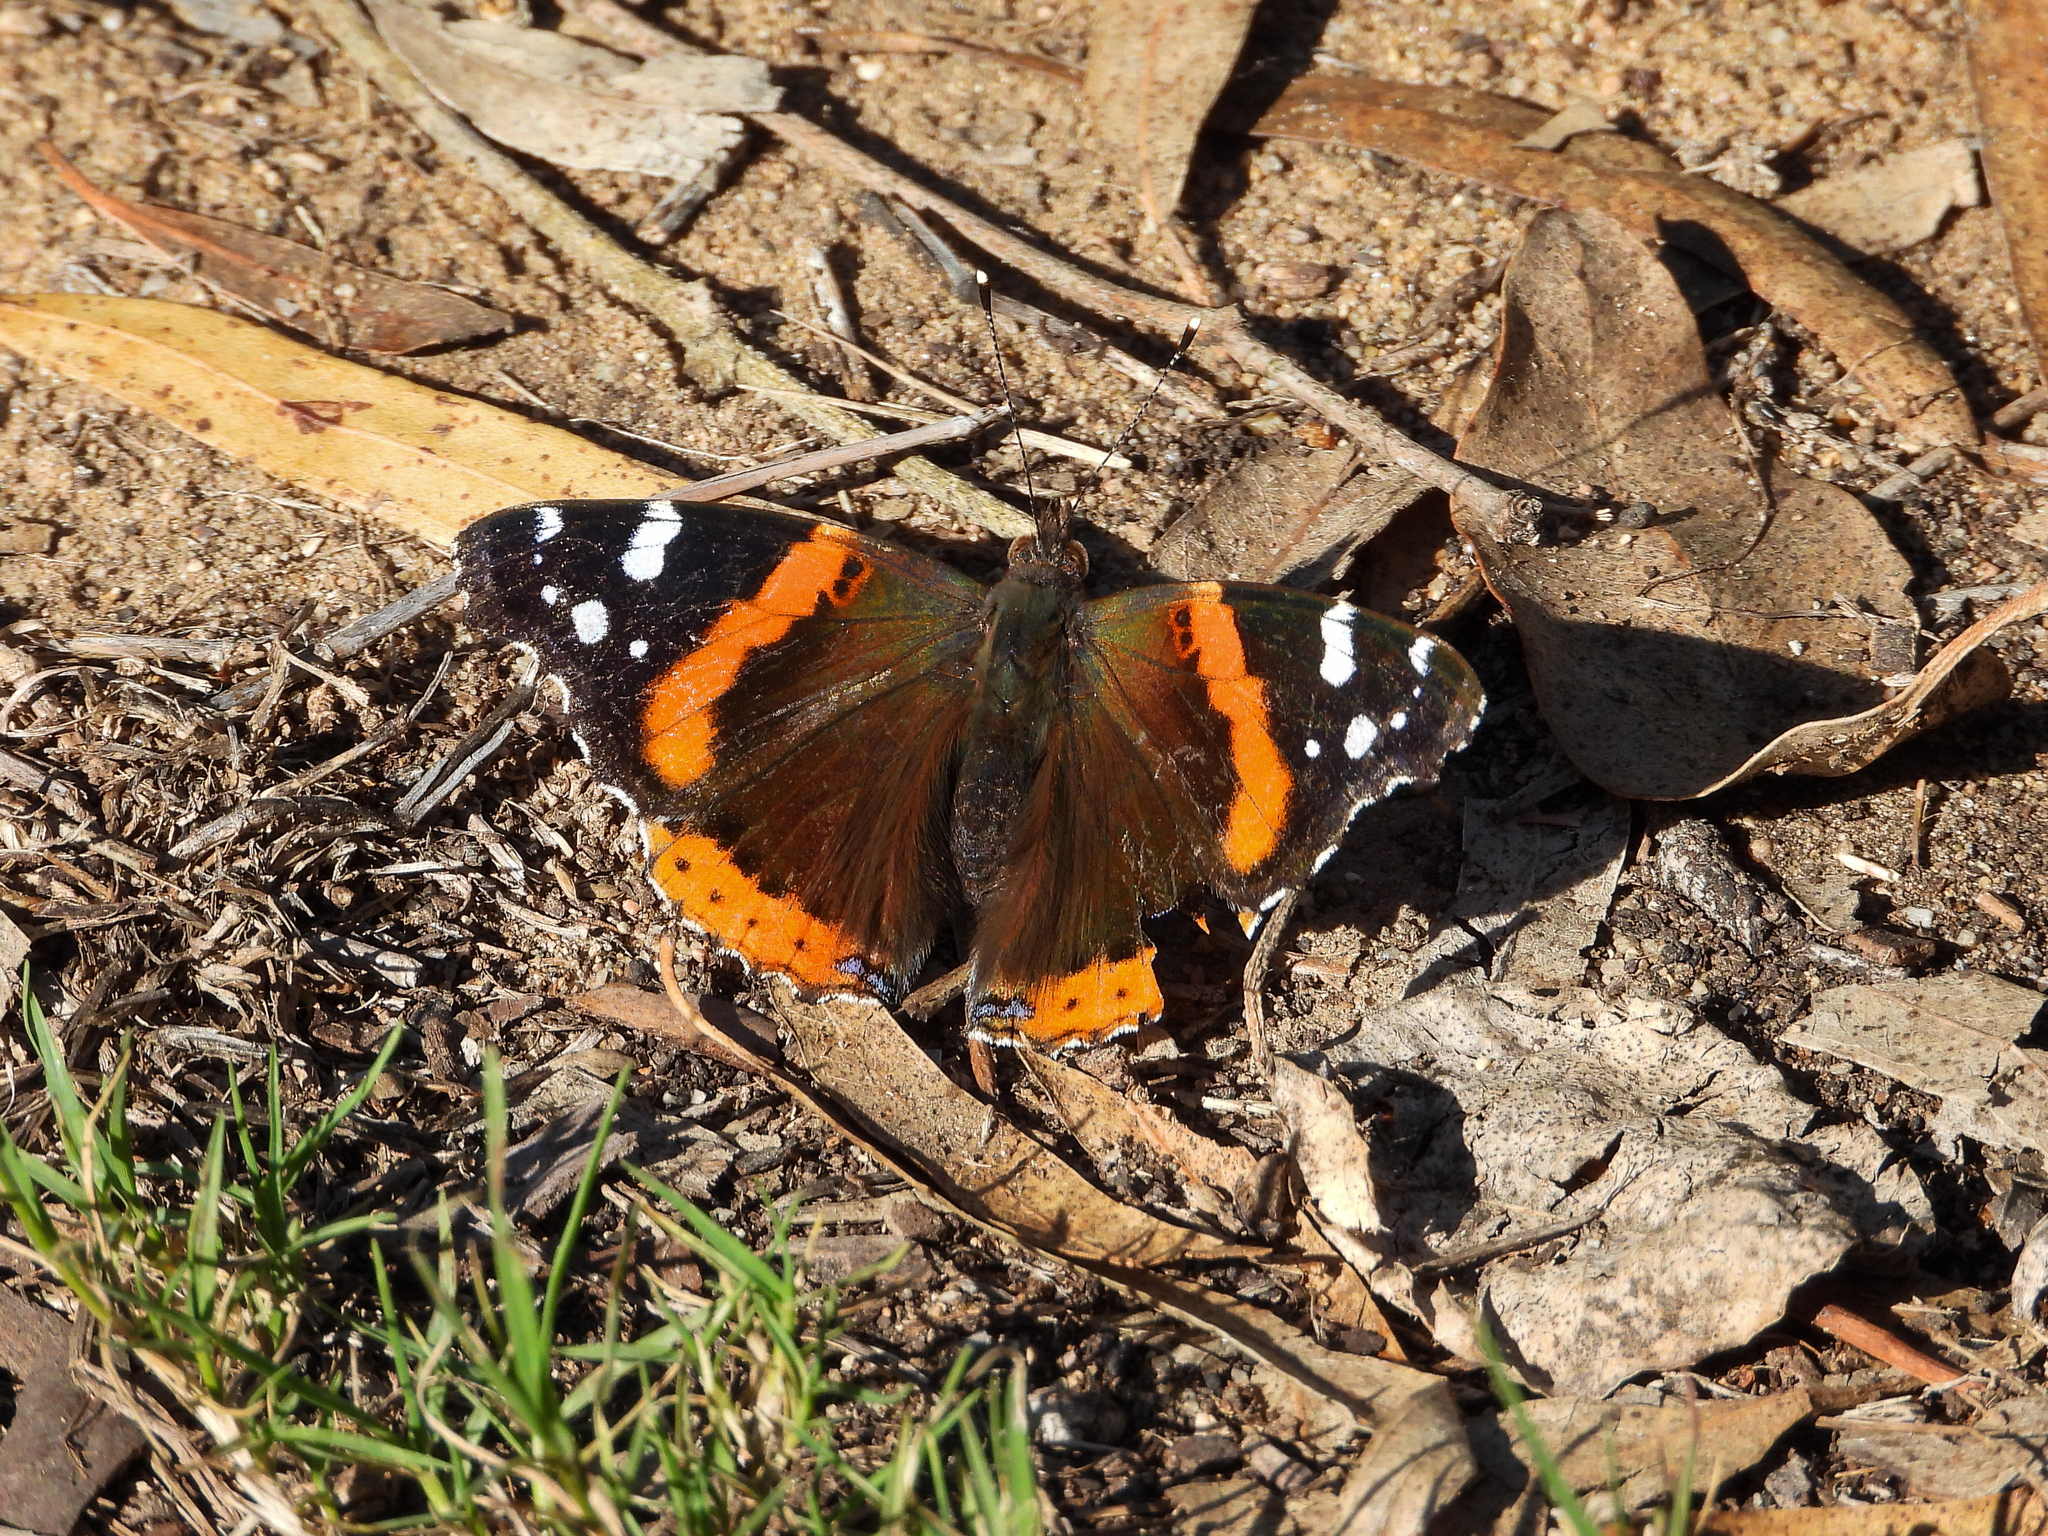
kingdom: Animalia
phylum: Arthropoda
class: Insecta
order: Lepidoptera
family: Nymphalidae
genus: Vanessa
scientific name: Vanessa atalanta
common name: Red admiral
